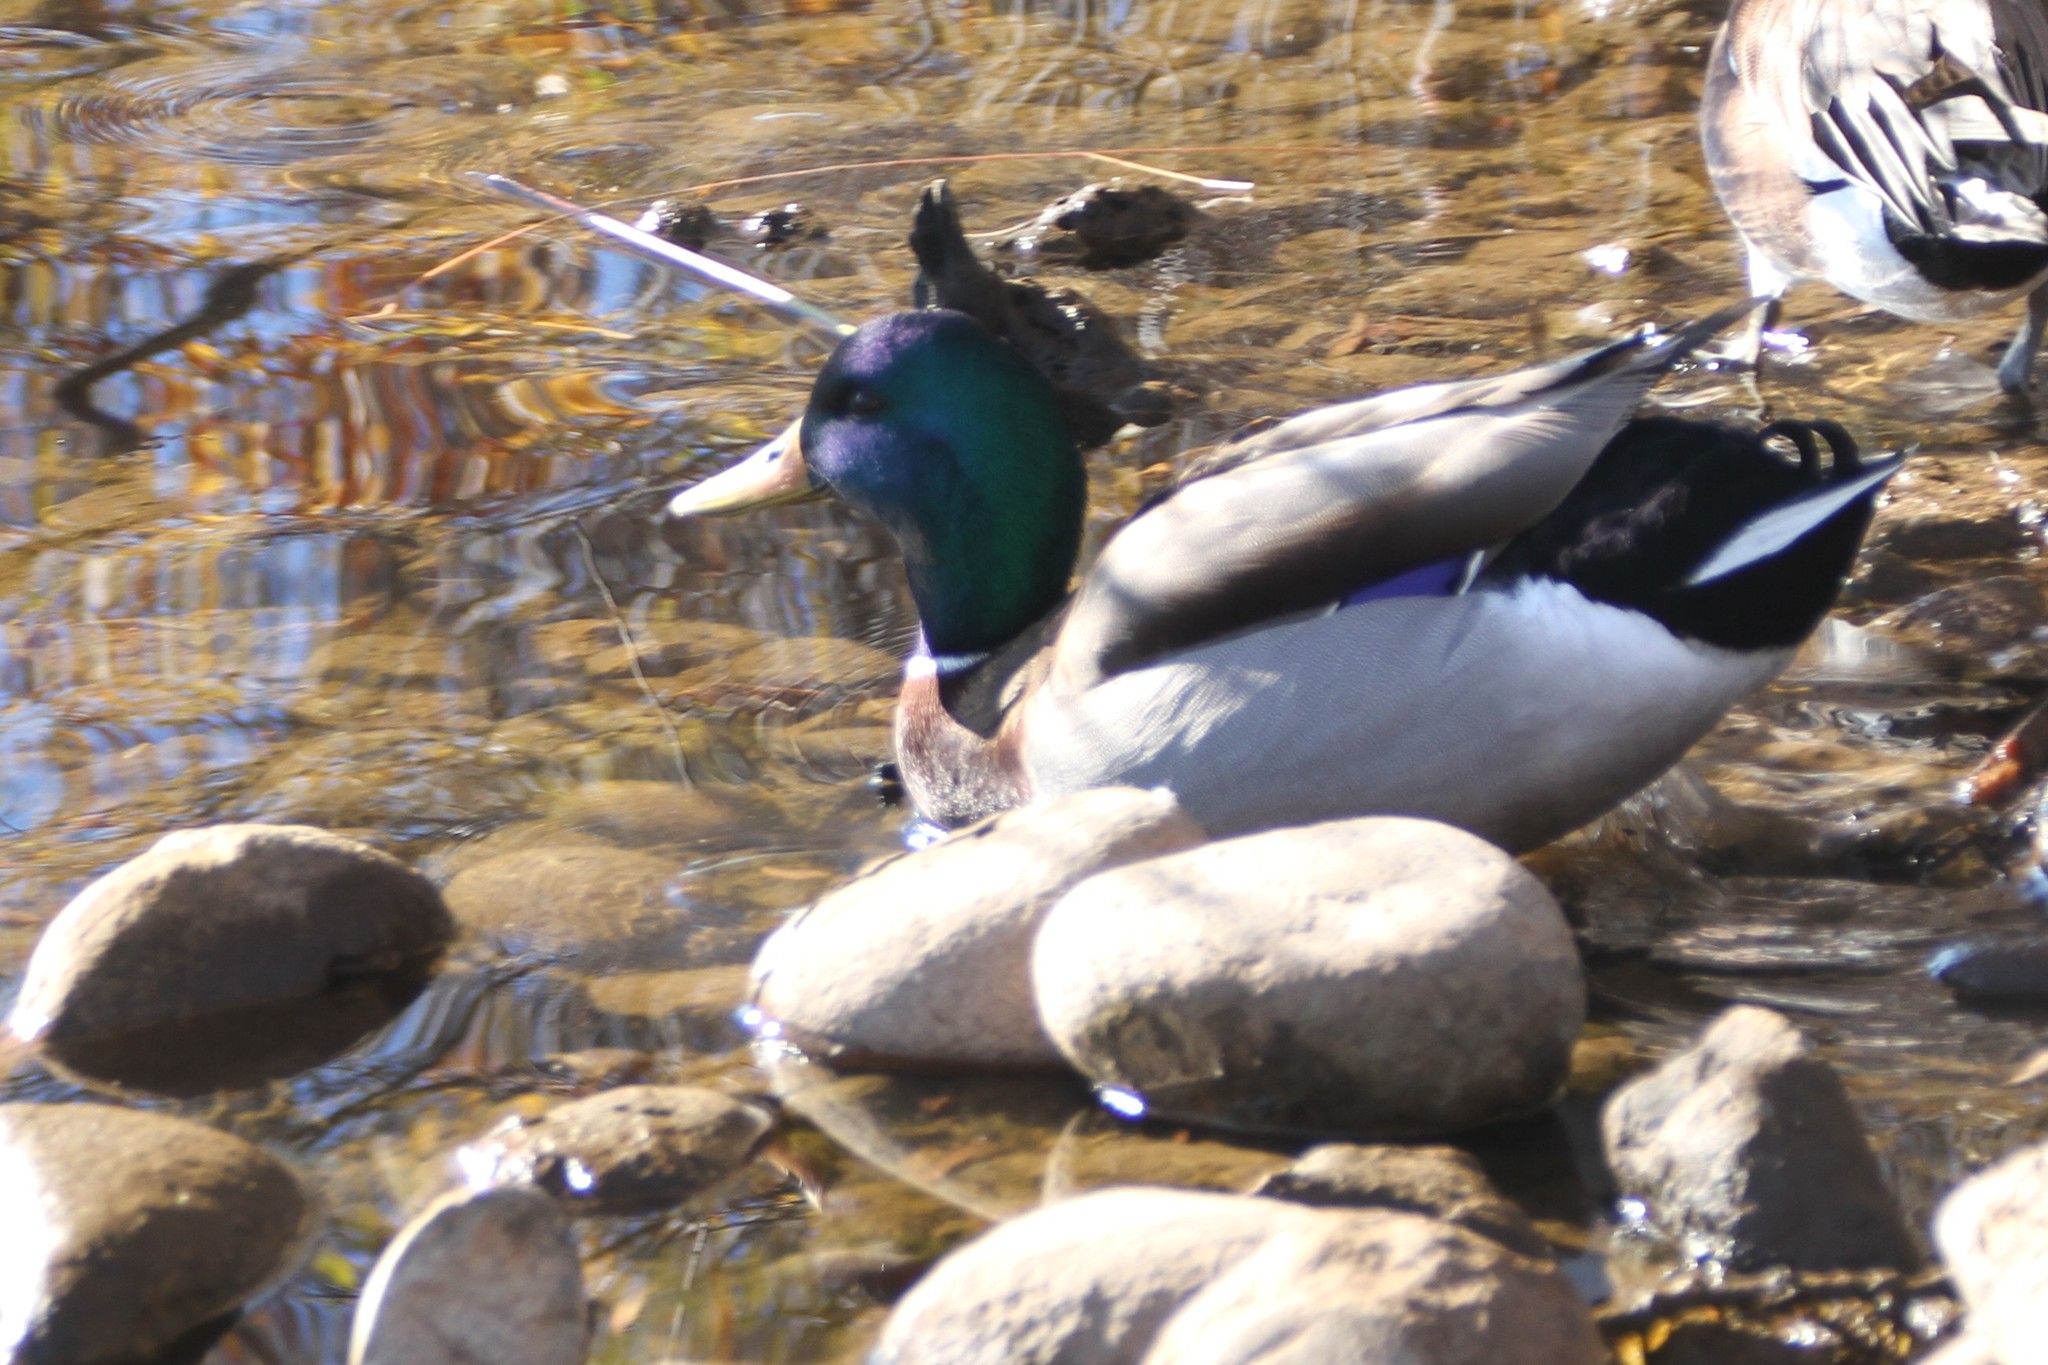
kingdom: Animalia
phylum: Chordata
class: Aves
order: Anseriformes
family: Anatidae
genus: Anas
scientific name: Anas platyrhynchos
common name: Mallard
